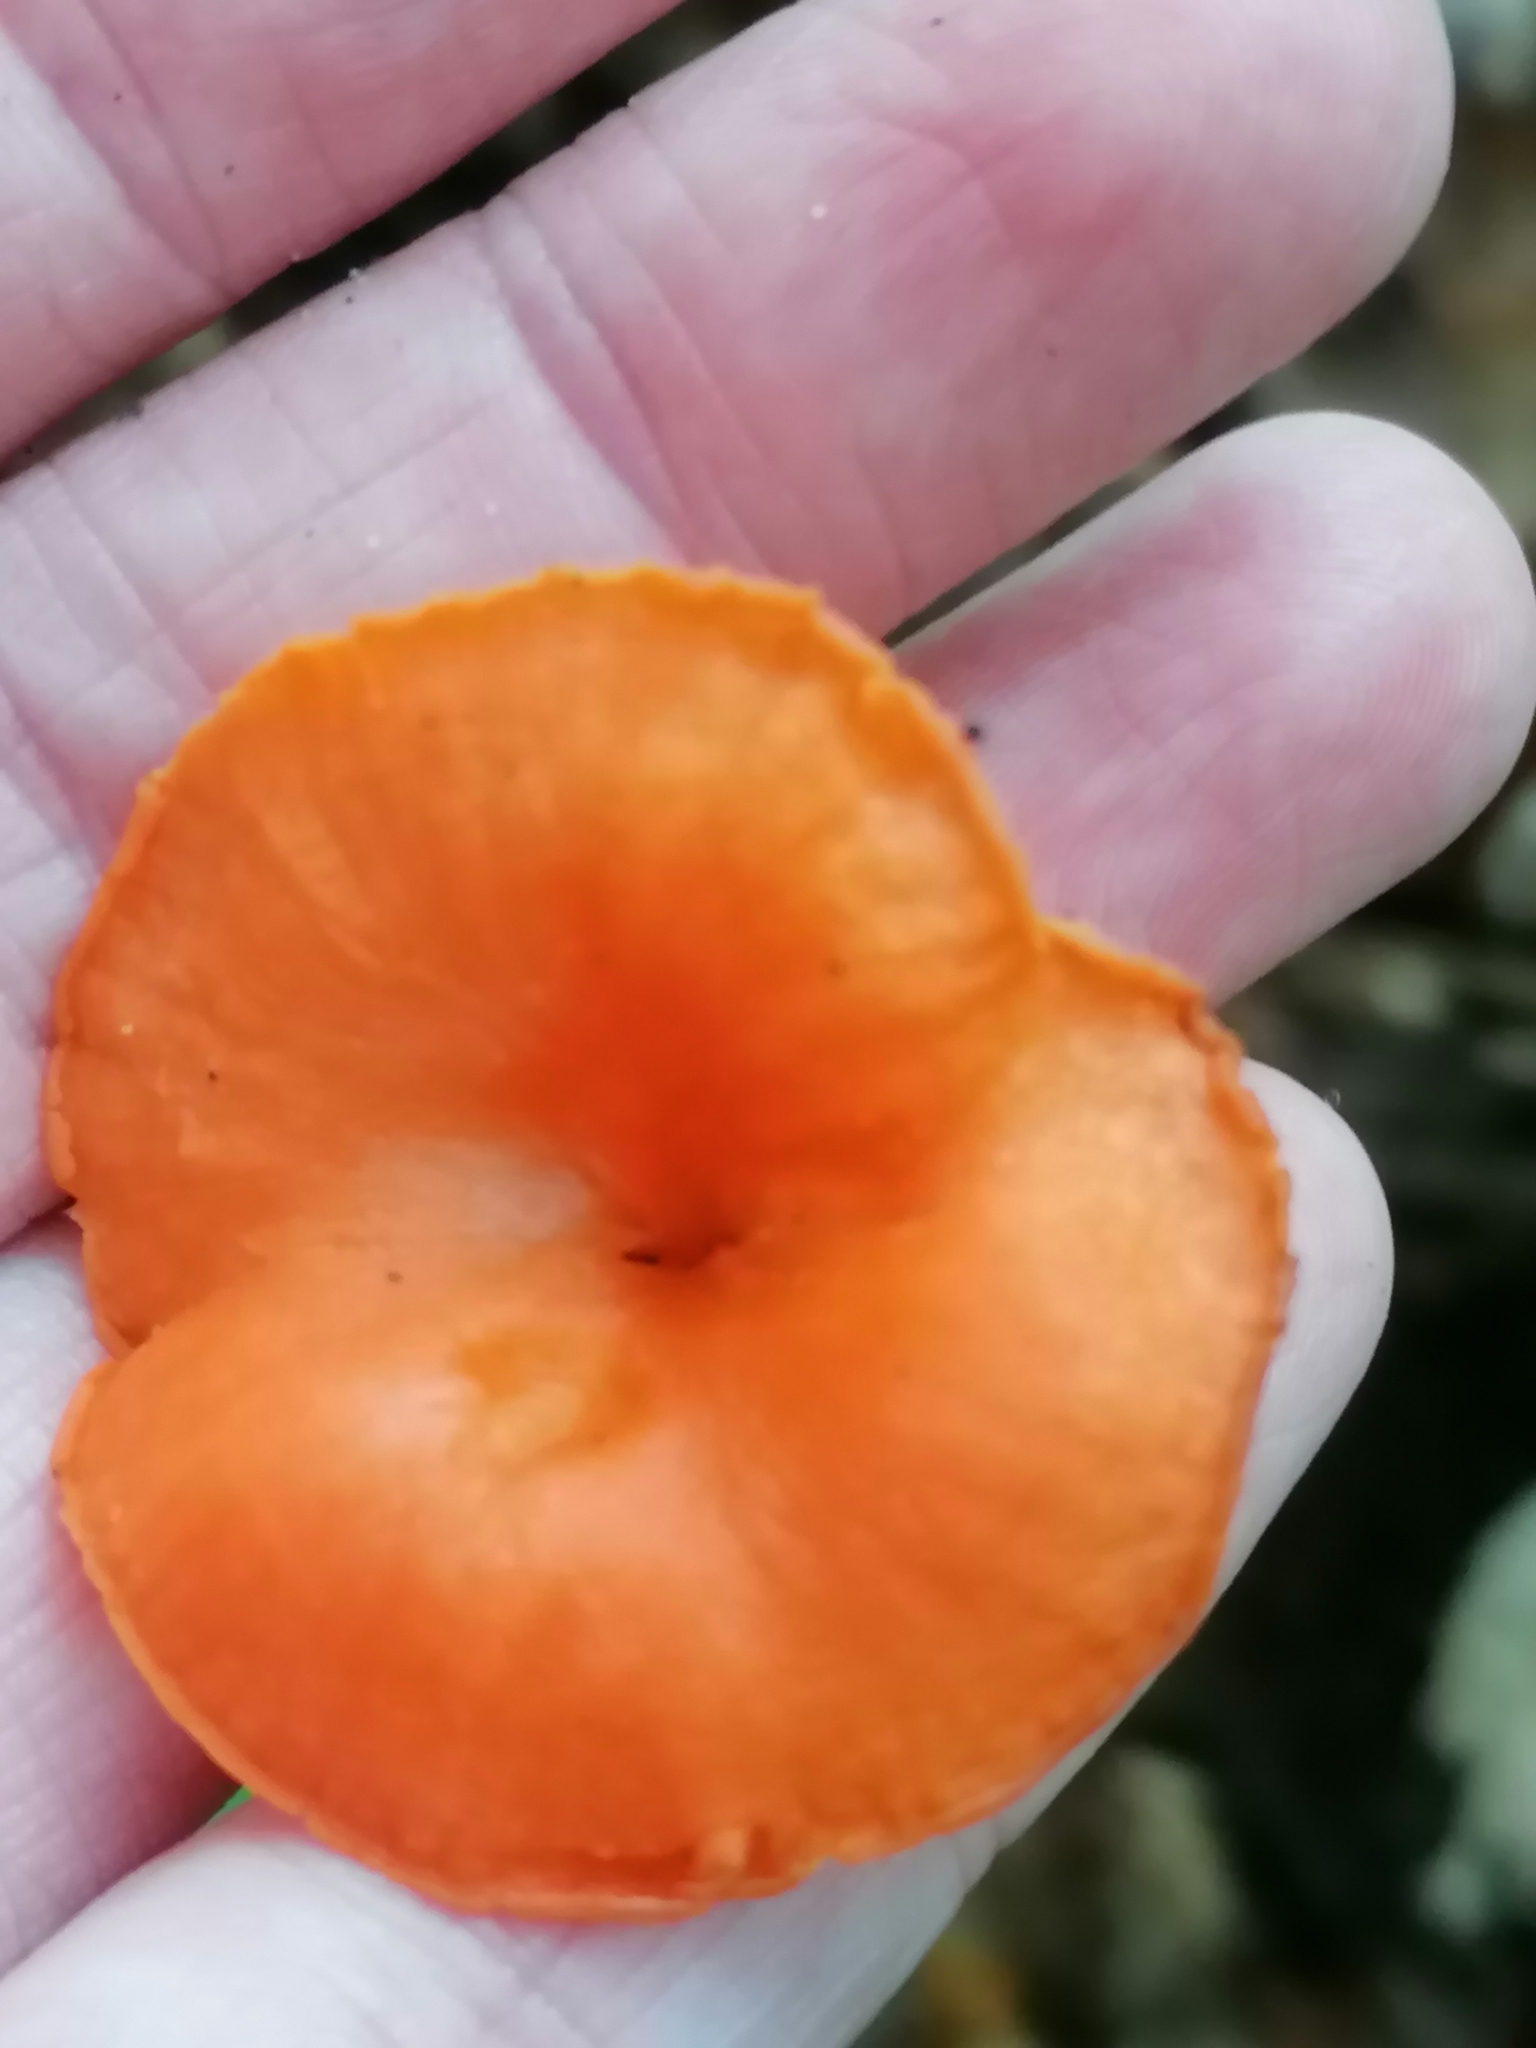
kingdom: Fungi
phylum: Basidiomycota
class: Agaricomycetes
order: Cantharellales
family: Hydnaceae
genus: Cantharellus
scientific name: Cantharellus cinnabarinus
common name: Cinnabar chanterelle
